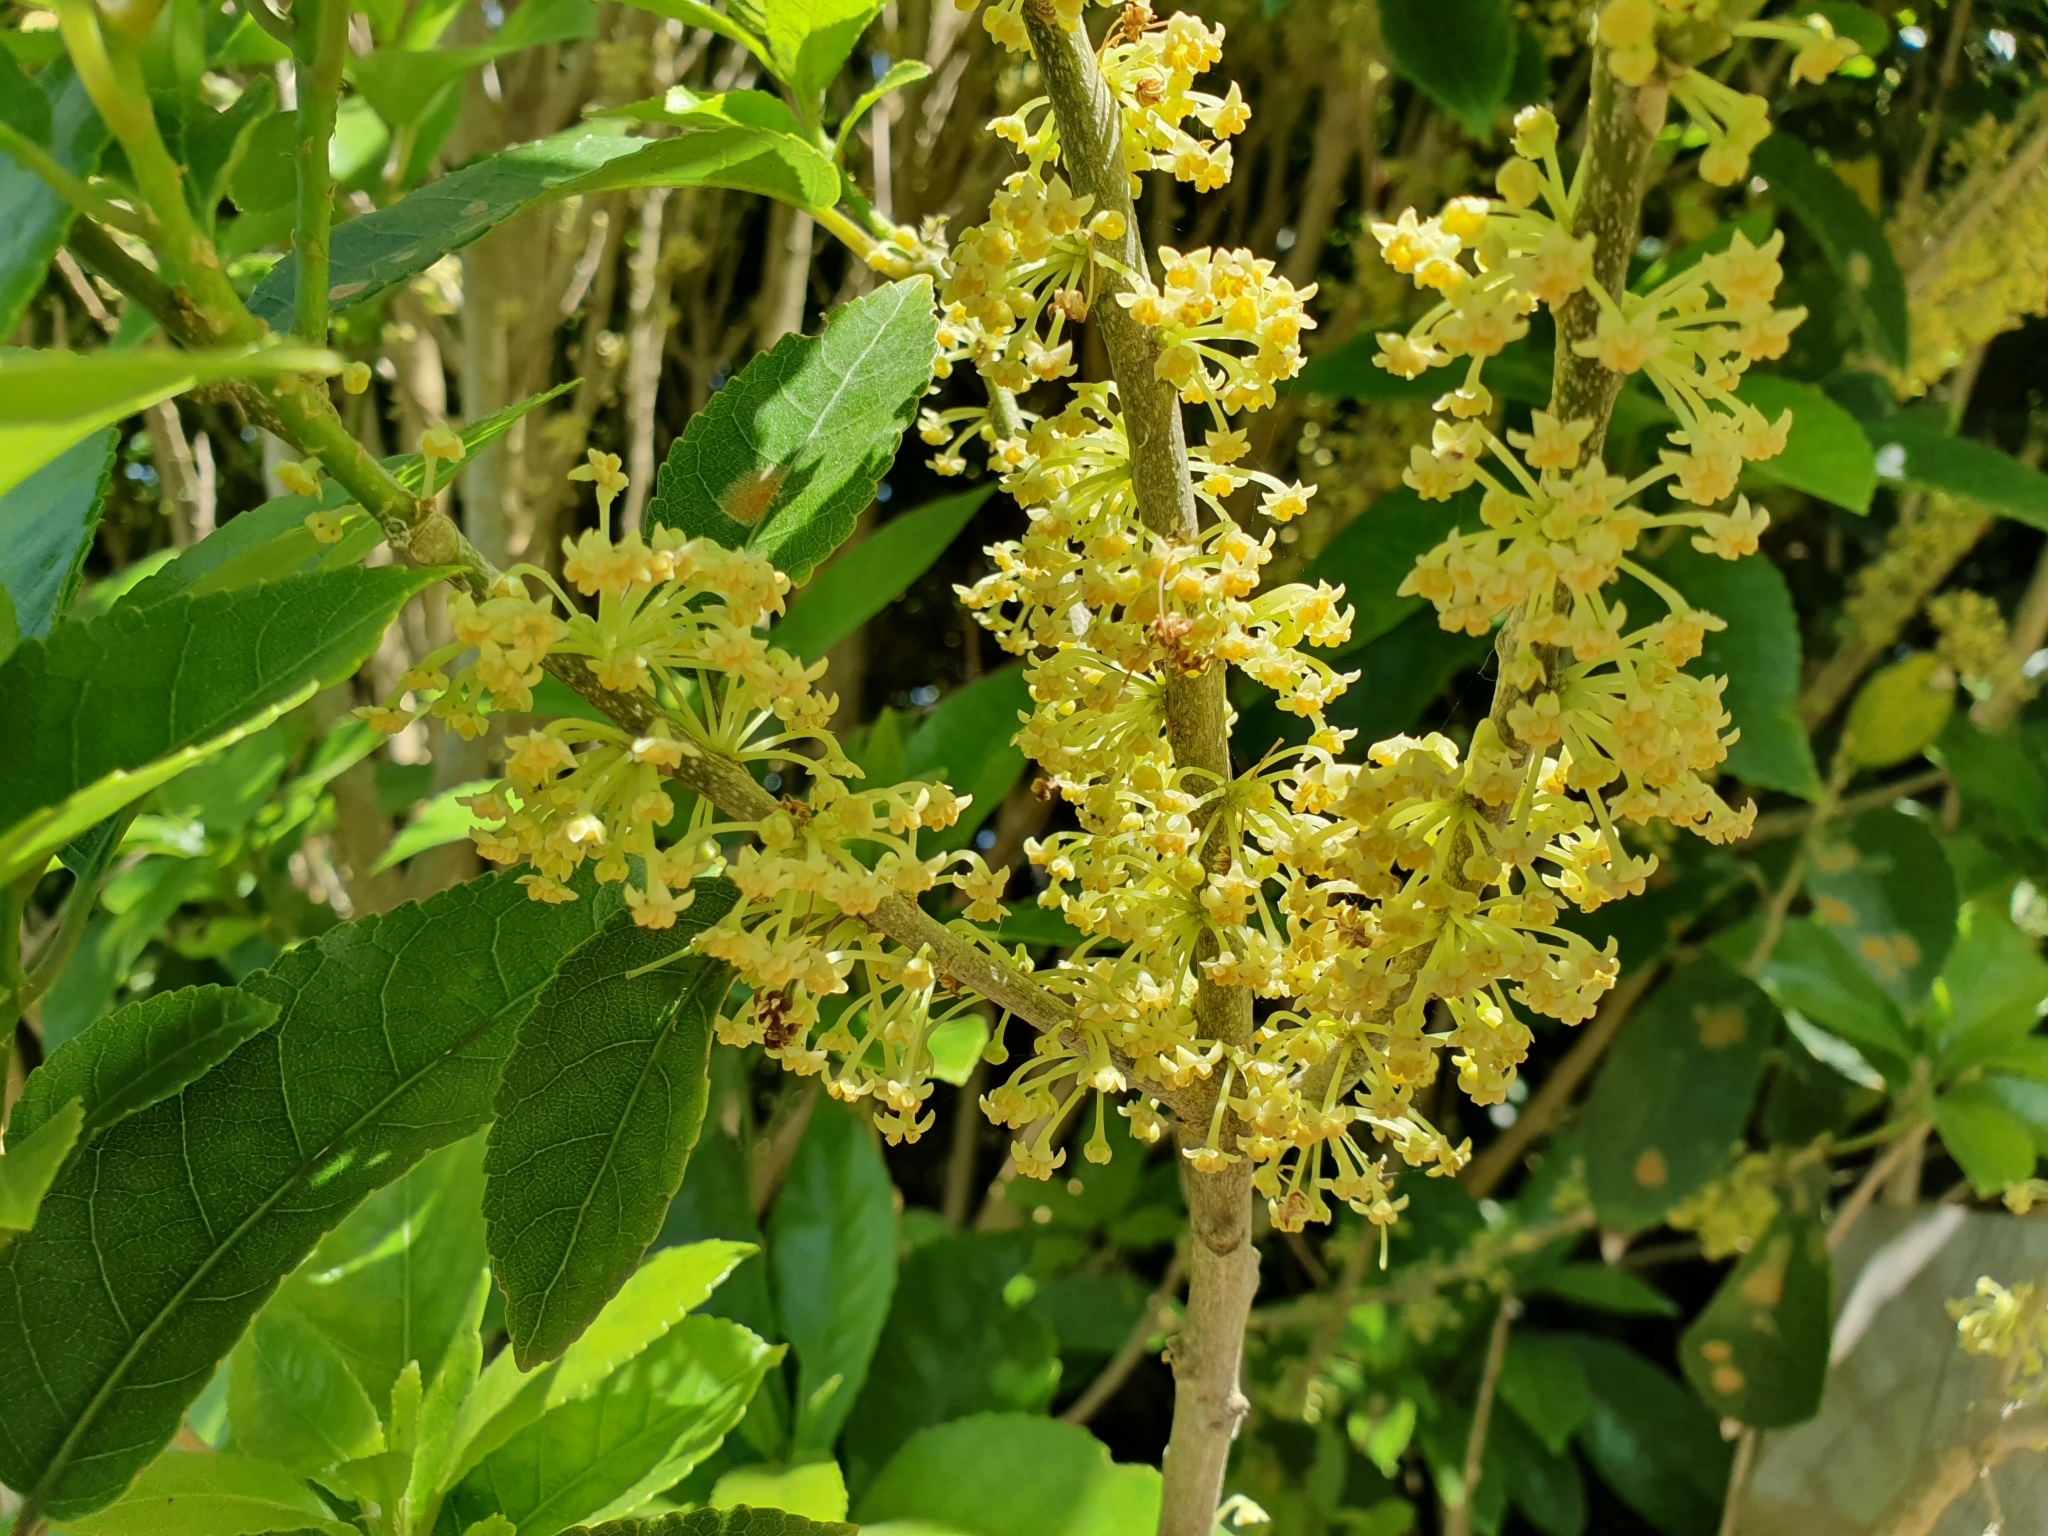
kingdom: Plantae
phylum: Tracheophyta
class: Magnoliopsida
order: Malpighiales
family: Violaceae
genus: Melicytus
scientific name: Melicytus ramiflorus
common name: Mahoe
